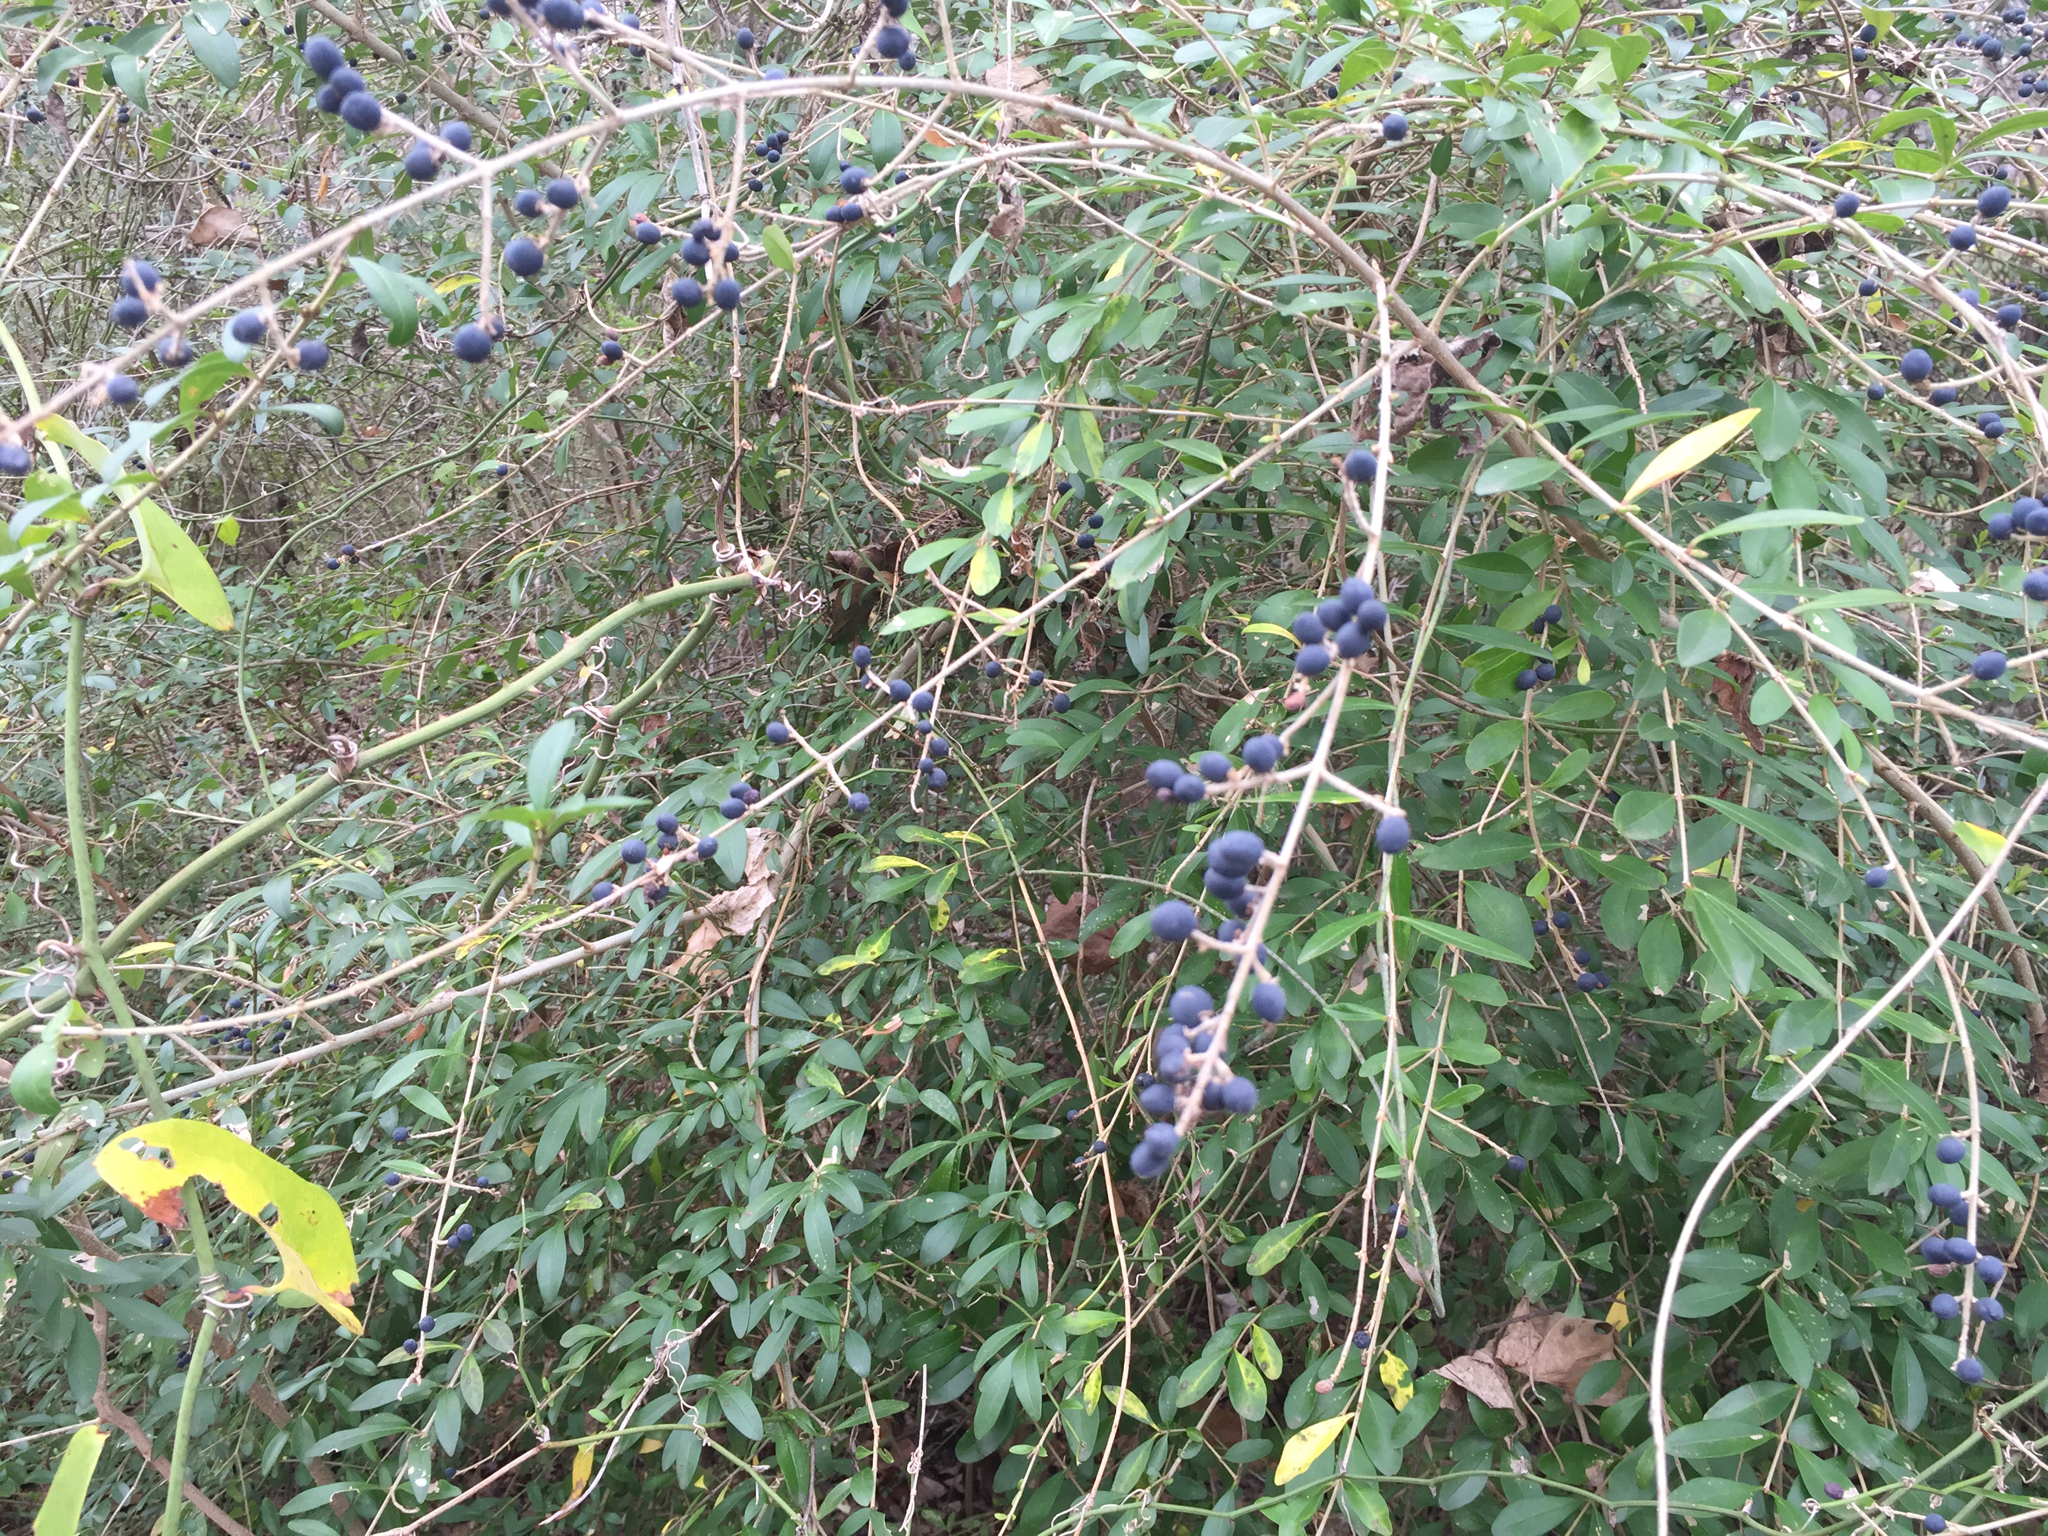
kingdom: Plantae
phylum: Tracheophyta
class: Magnoliopsida
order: Lamiales
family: Oleaceae
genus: Ligustrum
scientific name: Ligustrum quihoui
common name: Waxyleaf privet
